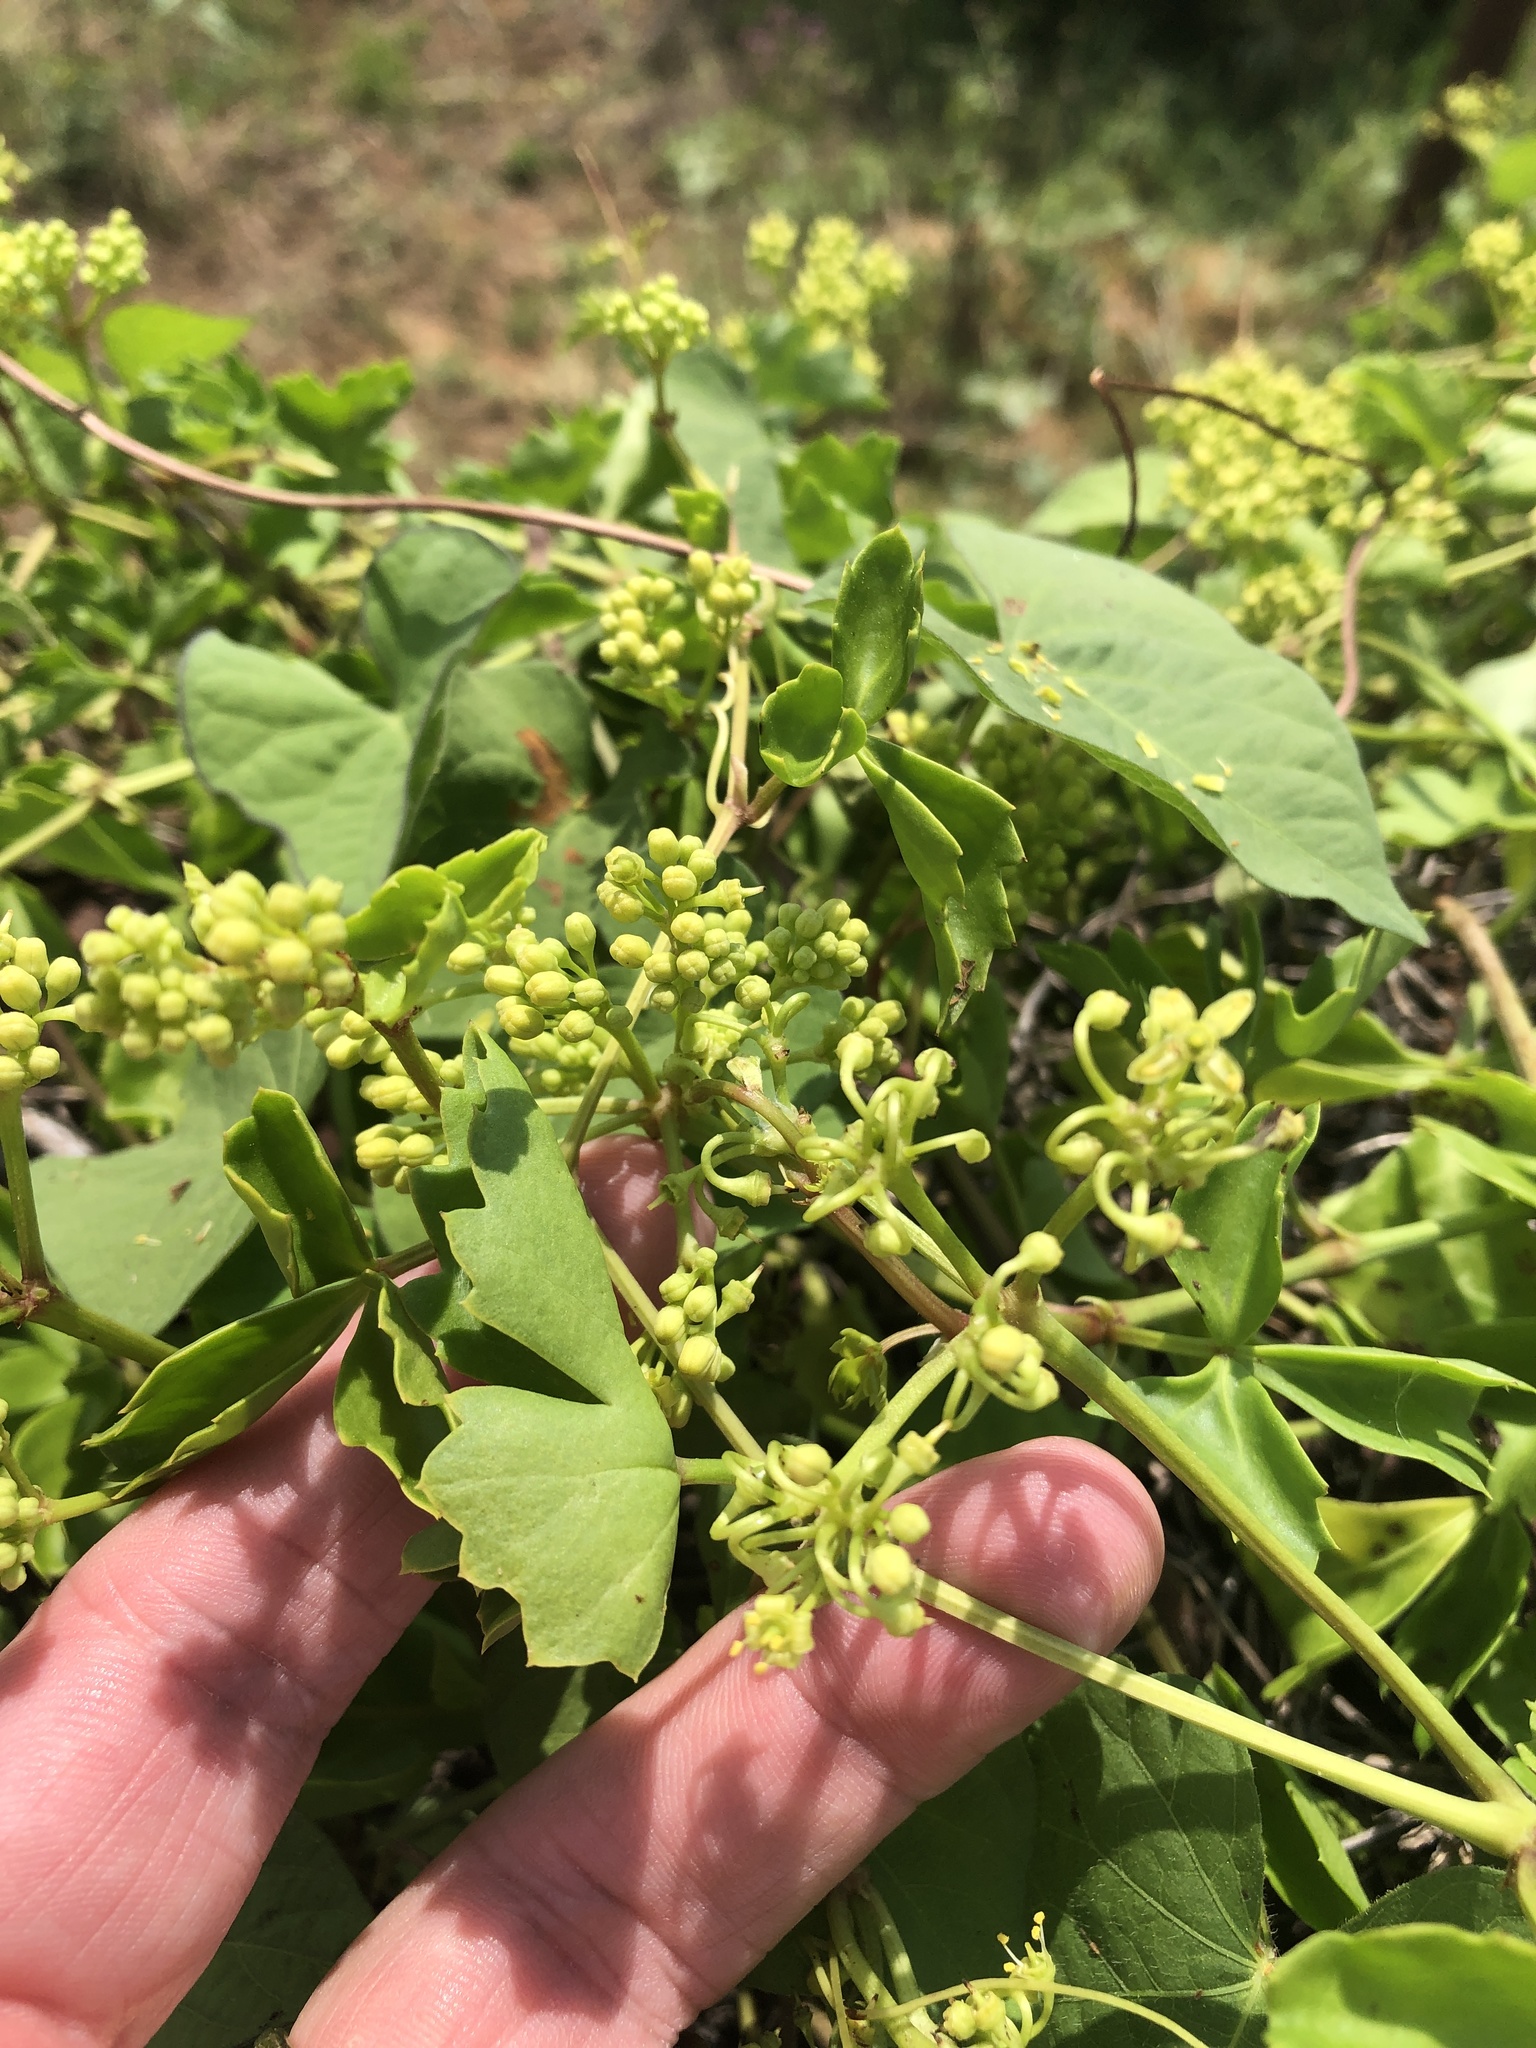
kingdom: Plantae
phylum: Tracheophyta
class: Magnoliopsida
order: Vitales
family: Vitaceae
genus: Cissus
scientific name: Cissus trifoliata
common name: Vine-sorrel
